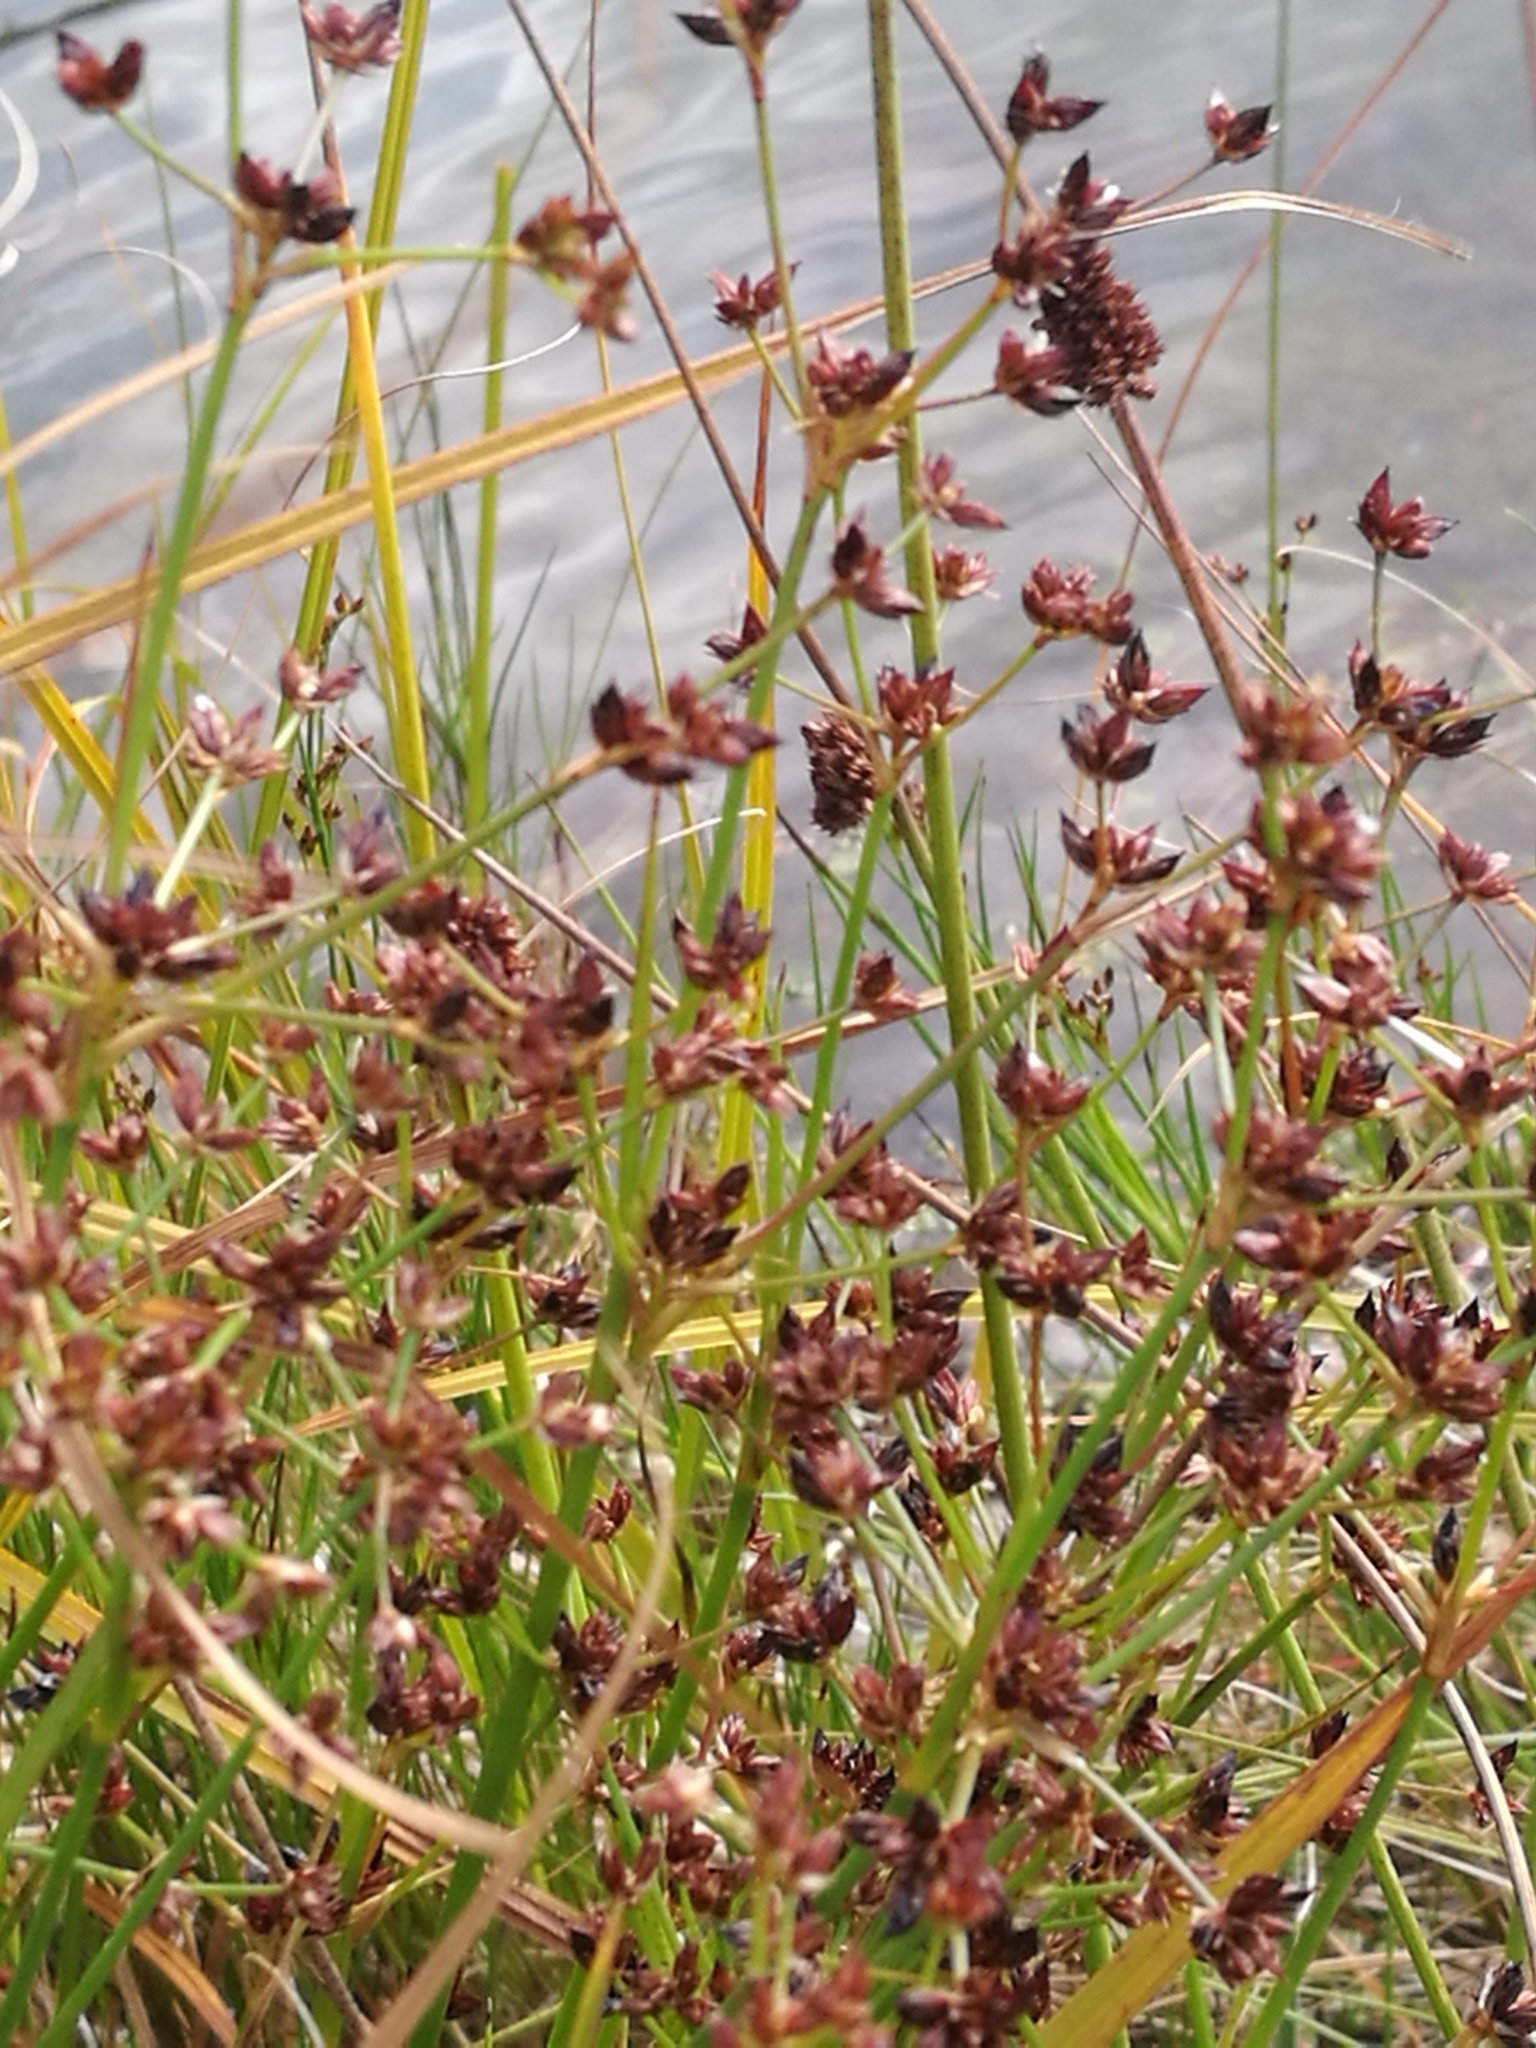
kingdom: Plantae
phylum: Tracheophyta
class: Liliopsida
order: Poales
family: Juncaceae
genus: Juncus
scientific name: Juncus articulatus
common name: Jointed rush
